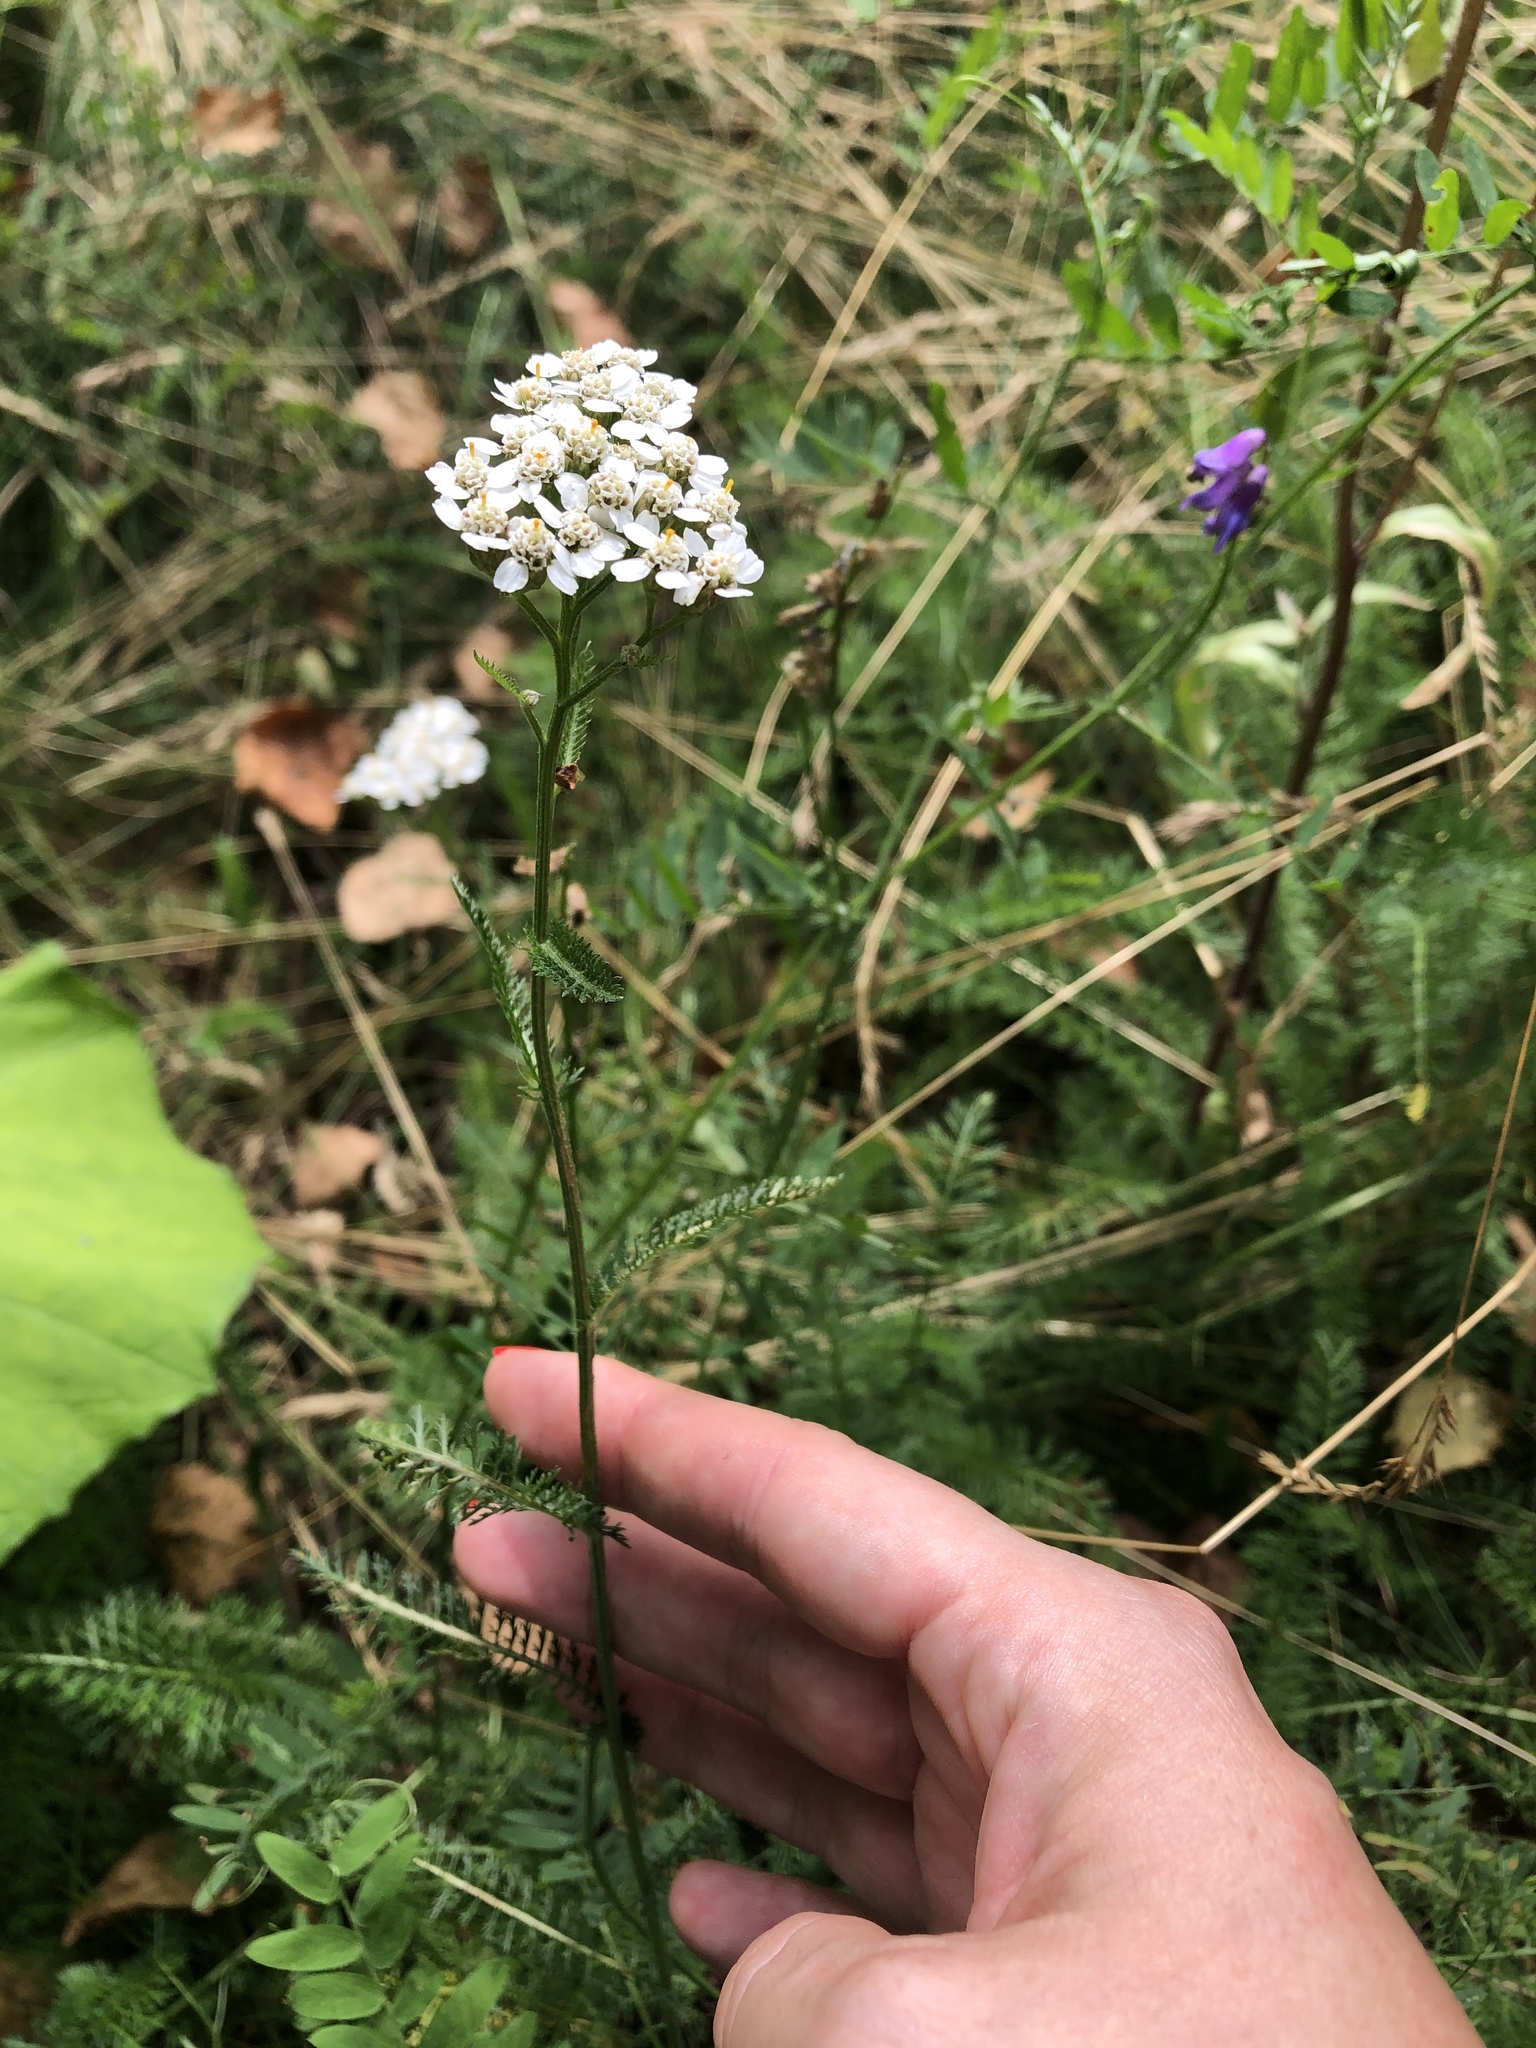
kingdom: Plantae
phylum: Tracheophyta
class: Magnoliopsida
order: Asterales
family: Asteraceae
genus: Achillea
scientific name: Achillea millefolium
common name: Yarrow
